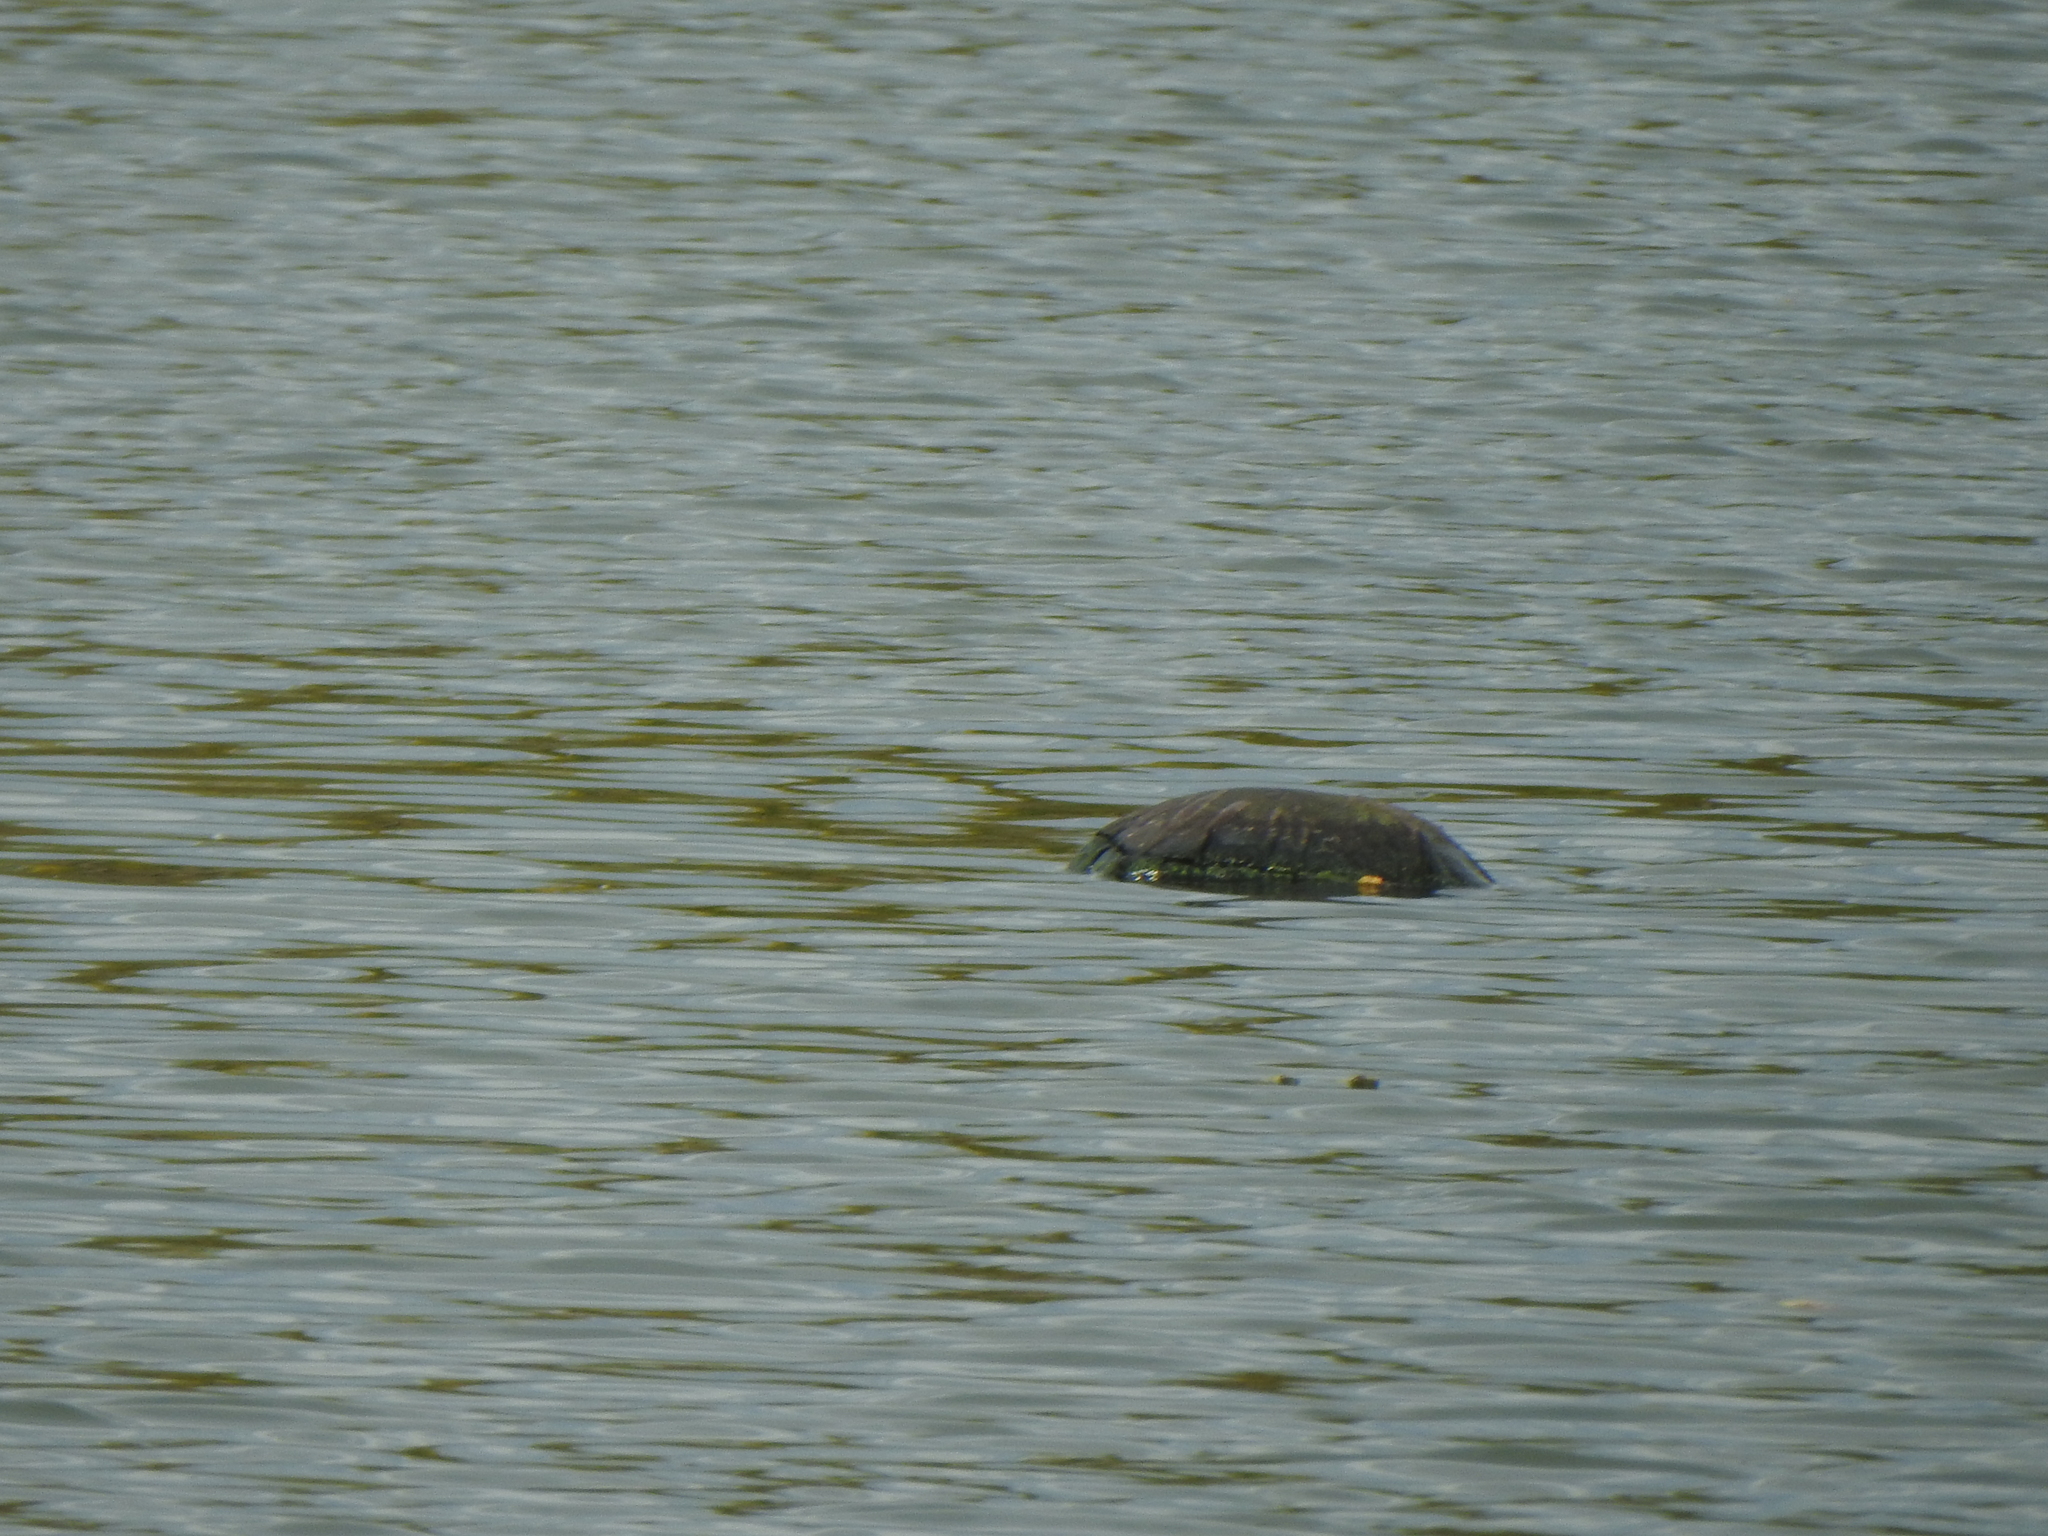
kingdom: Animalia
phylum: Chordata
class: Testudines
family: Emydidae
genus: Emys
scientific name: Emys blandingii
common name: Blanding's turtle
